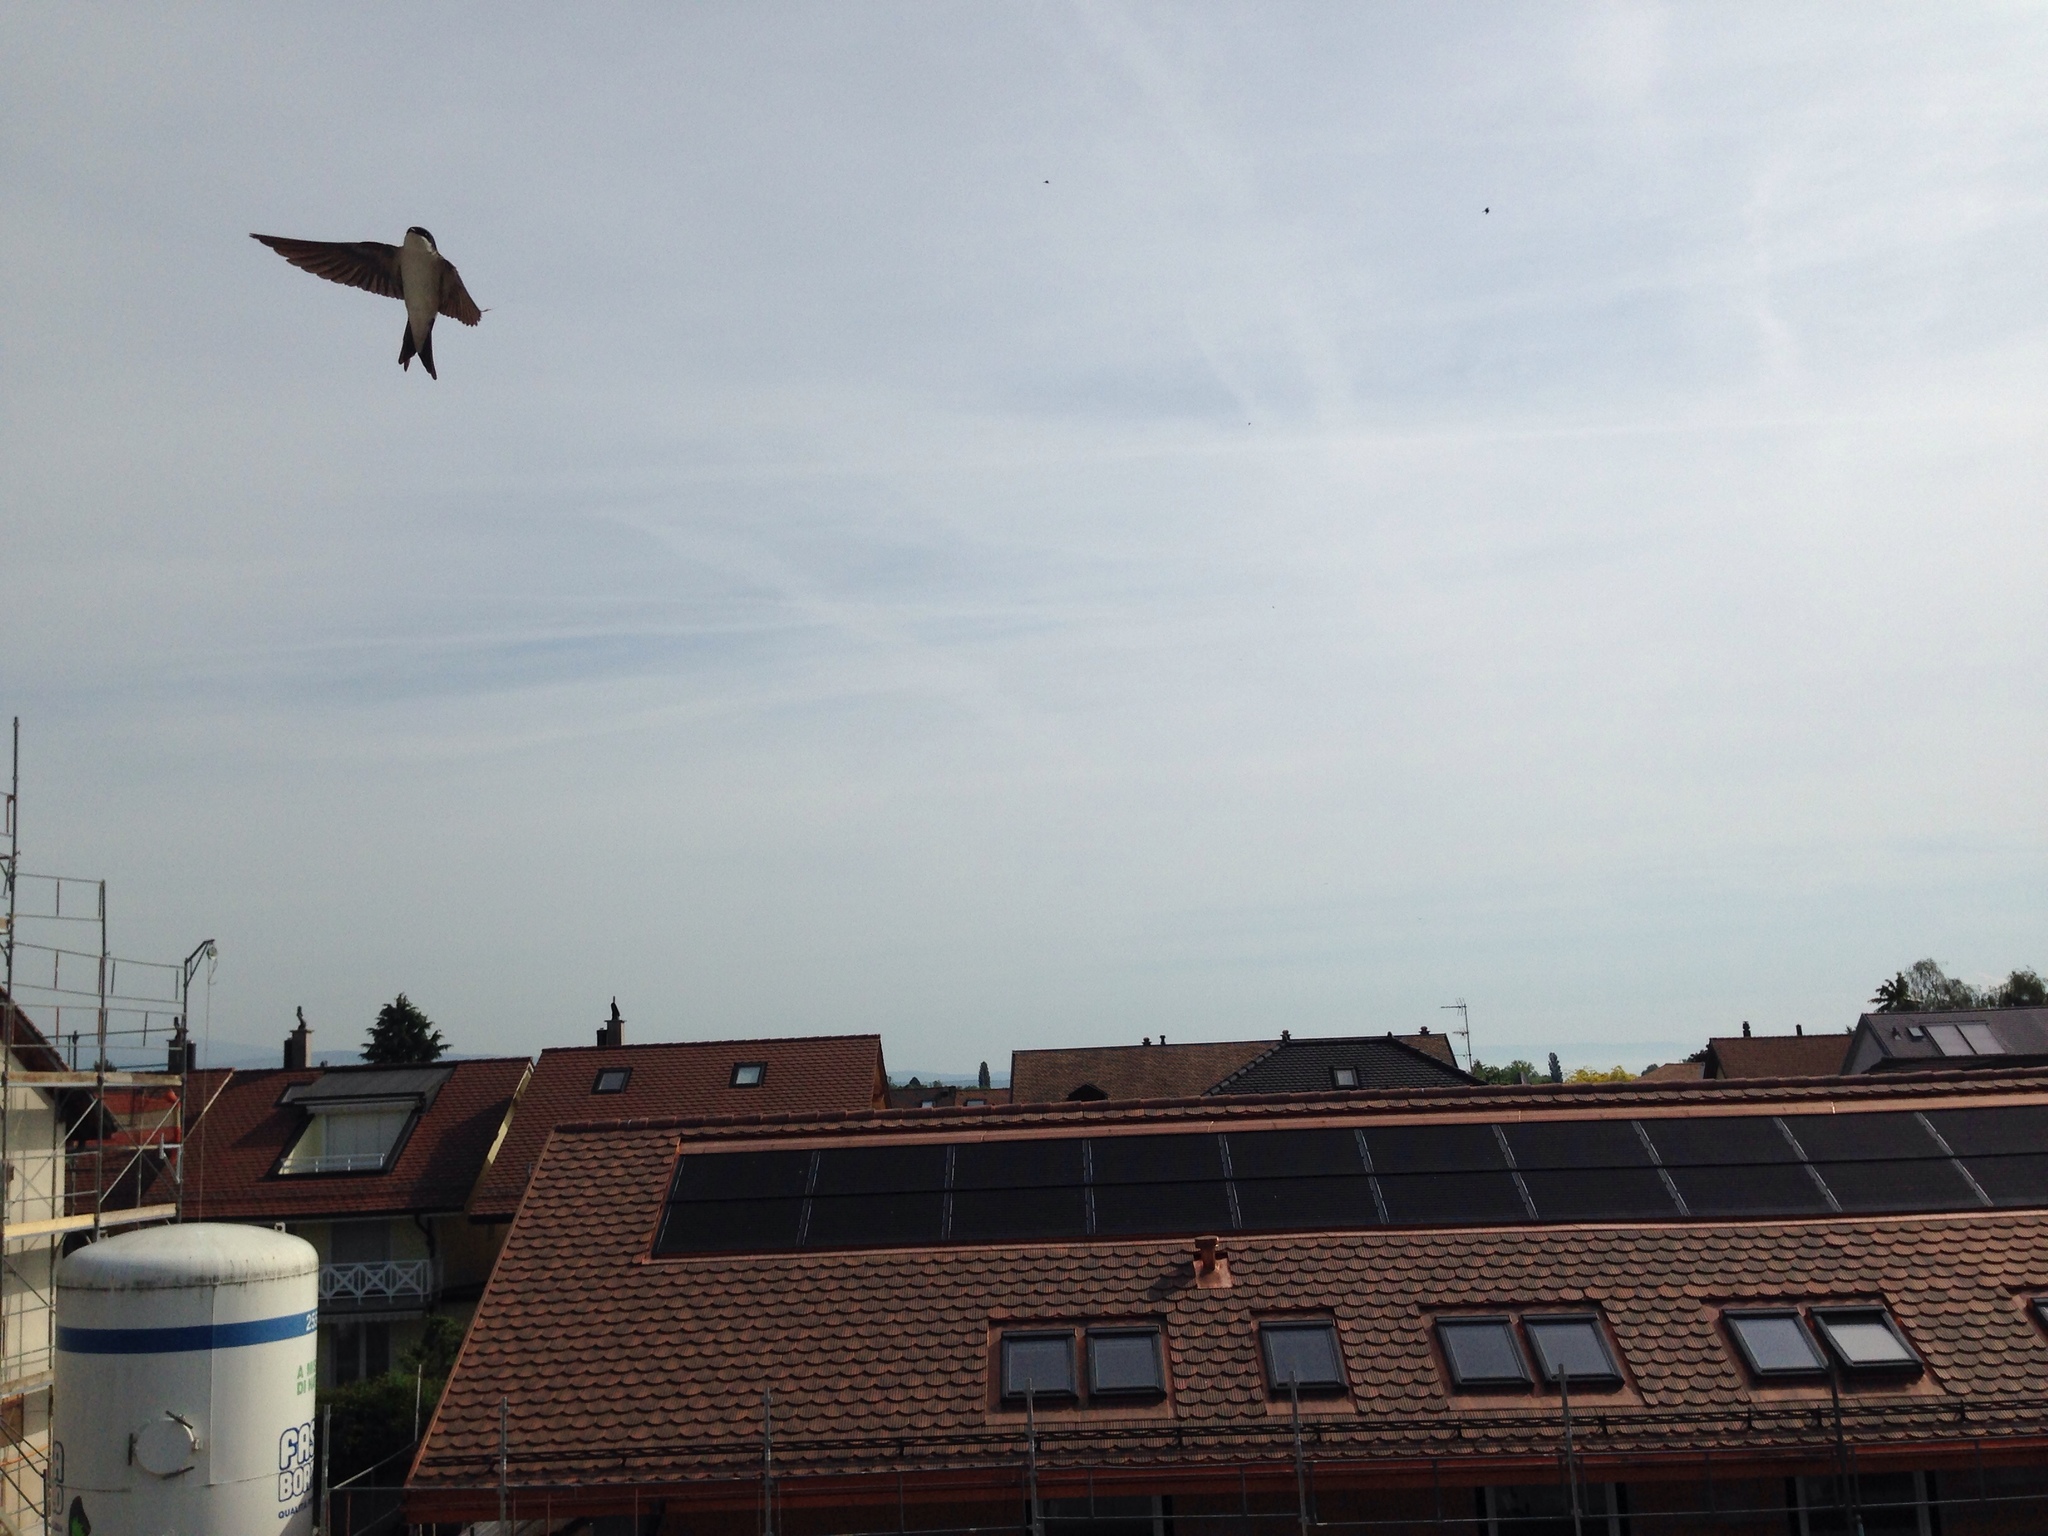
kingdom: Animalia
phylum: Chordata
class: Aves
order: Passeriformes
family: Hirundinidae
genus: Delichon
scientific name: Delichon urbicum
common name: Common house martin
